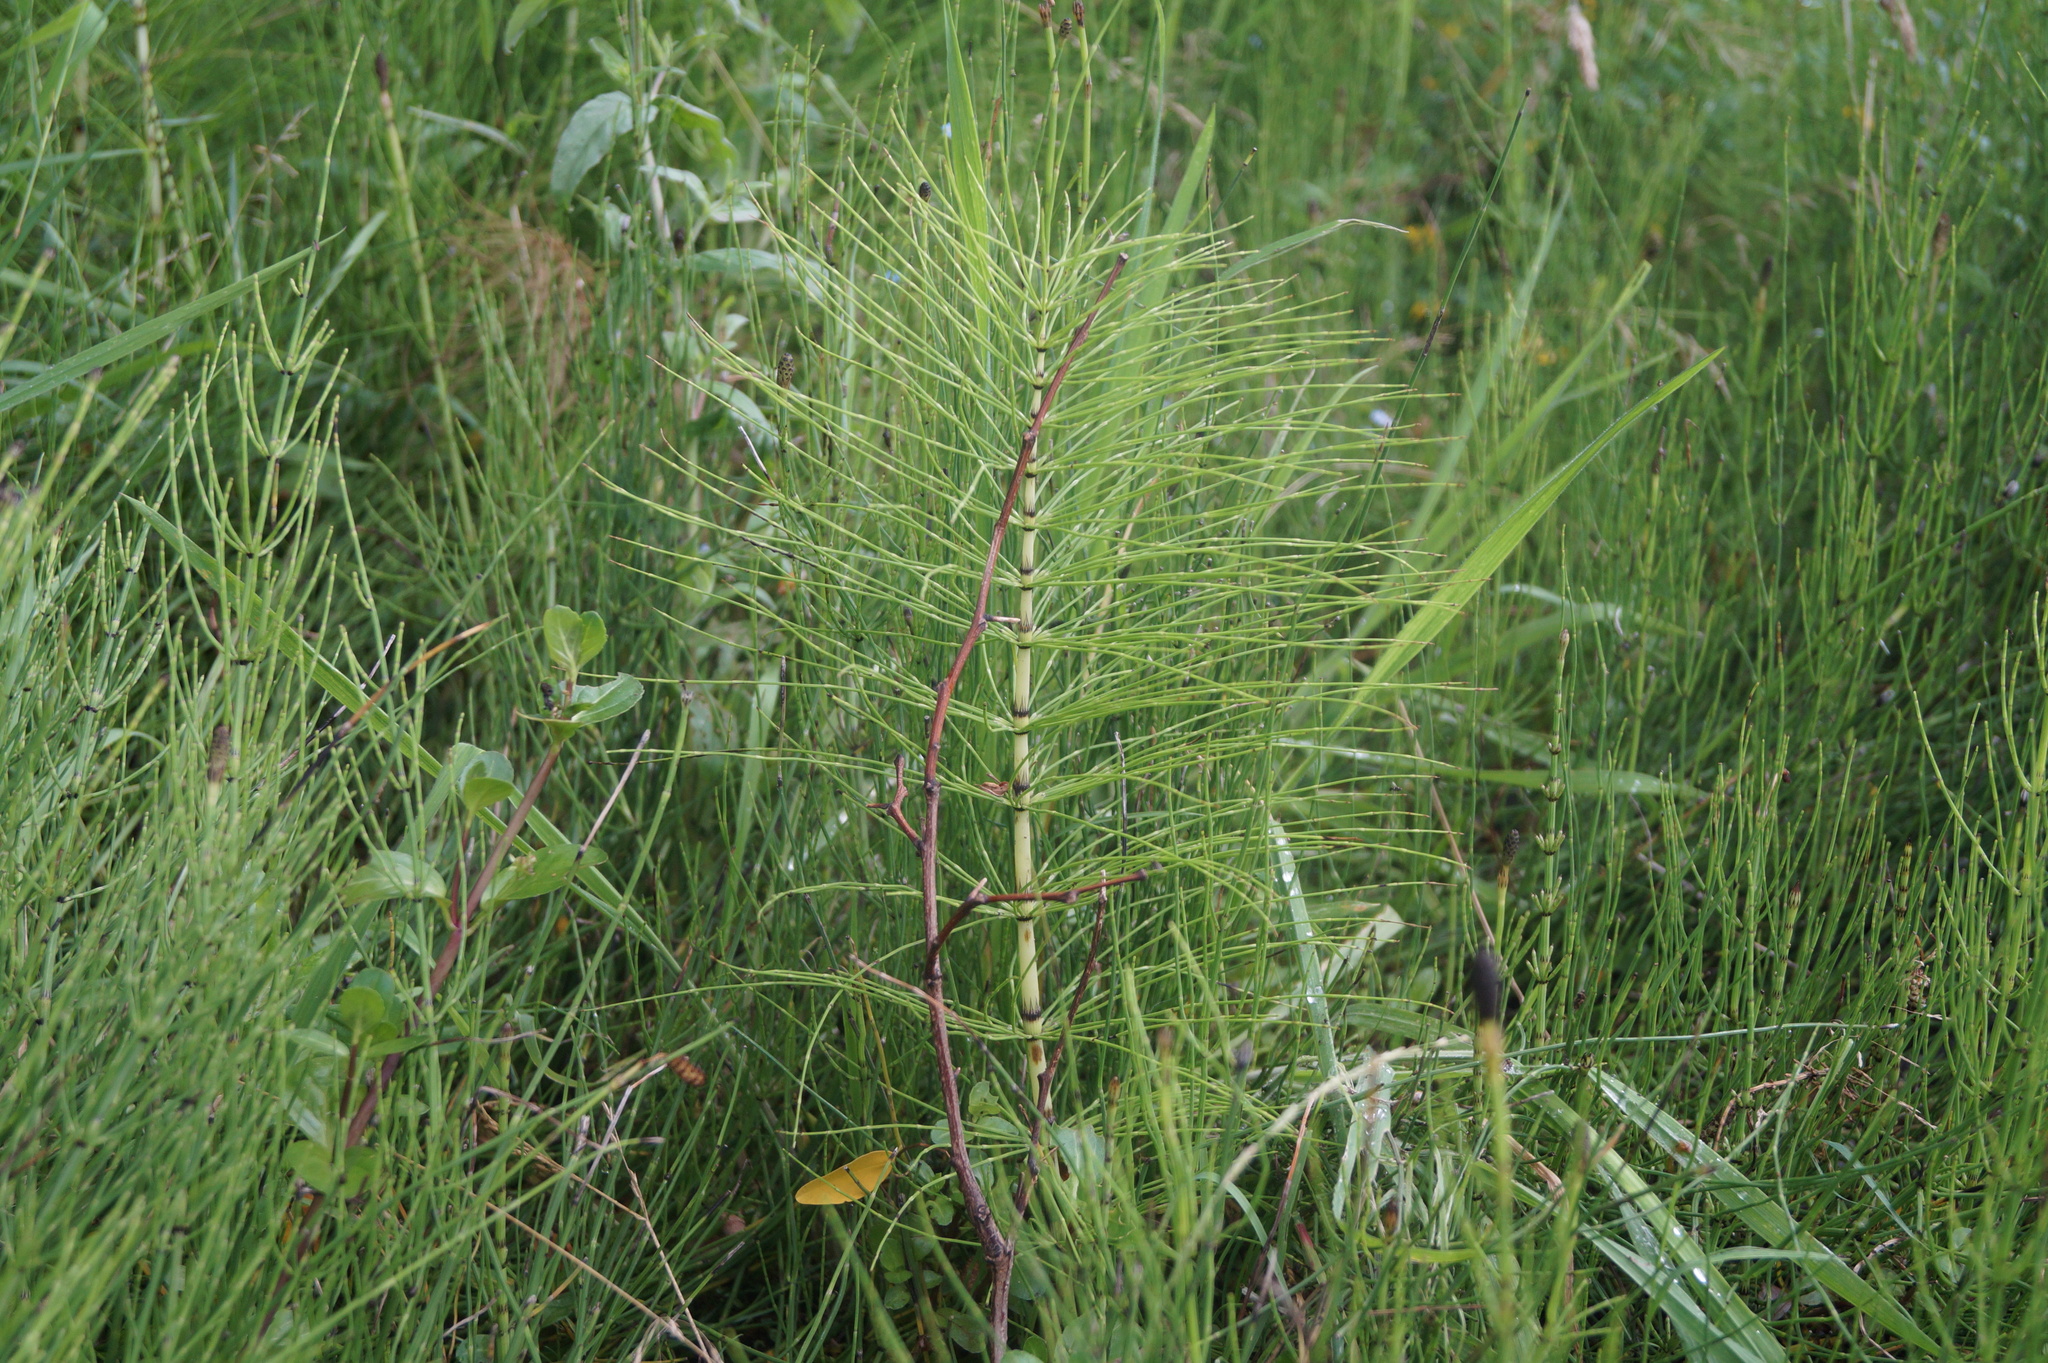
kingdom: Plantae
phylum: Tracheophyta
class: Polypodiopsida
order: Equisetales
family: Equisetaceae
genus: Equisetum
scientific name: Equisetum telmateia
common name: Great horsetail
